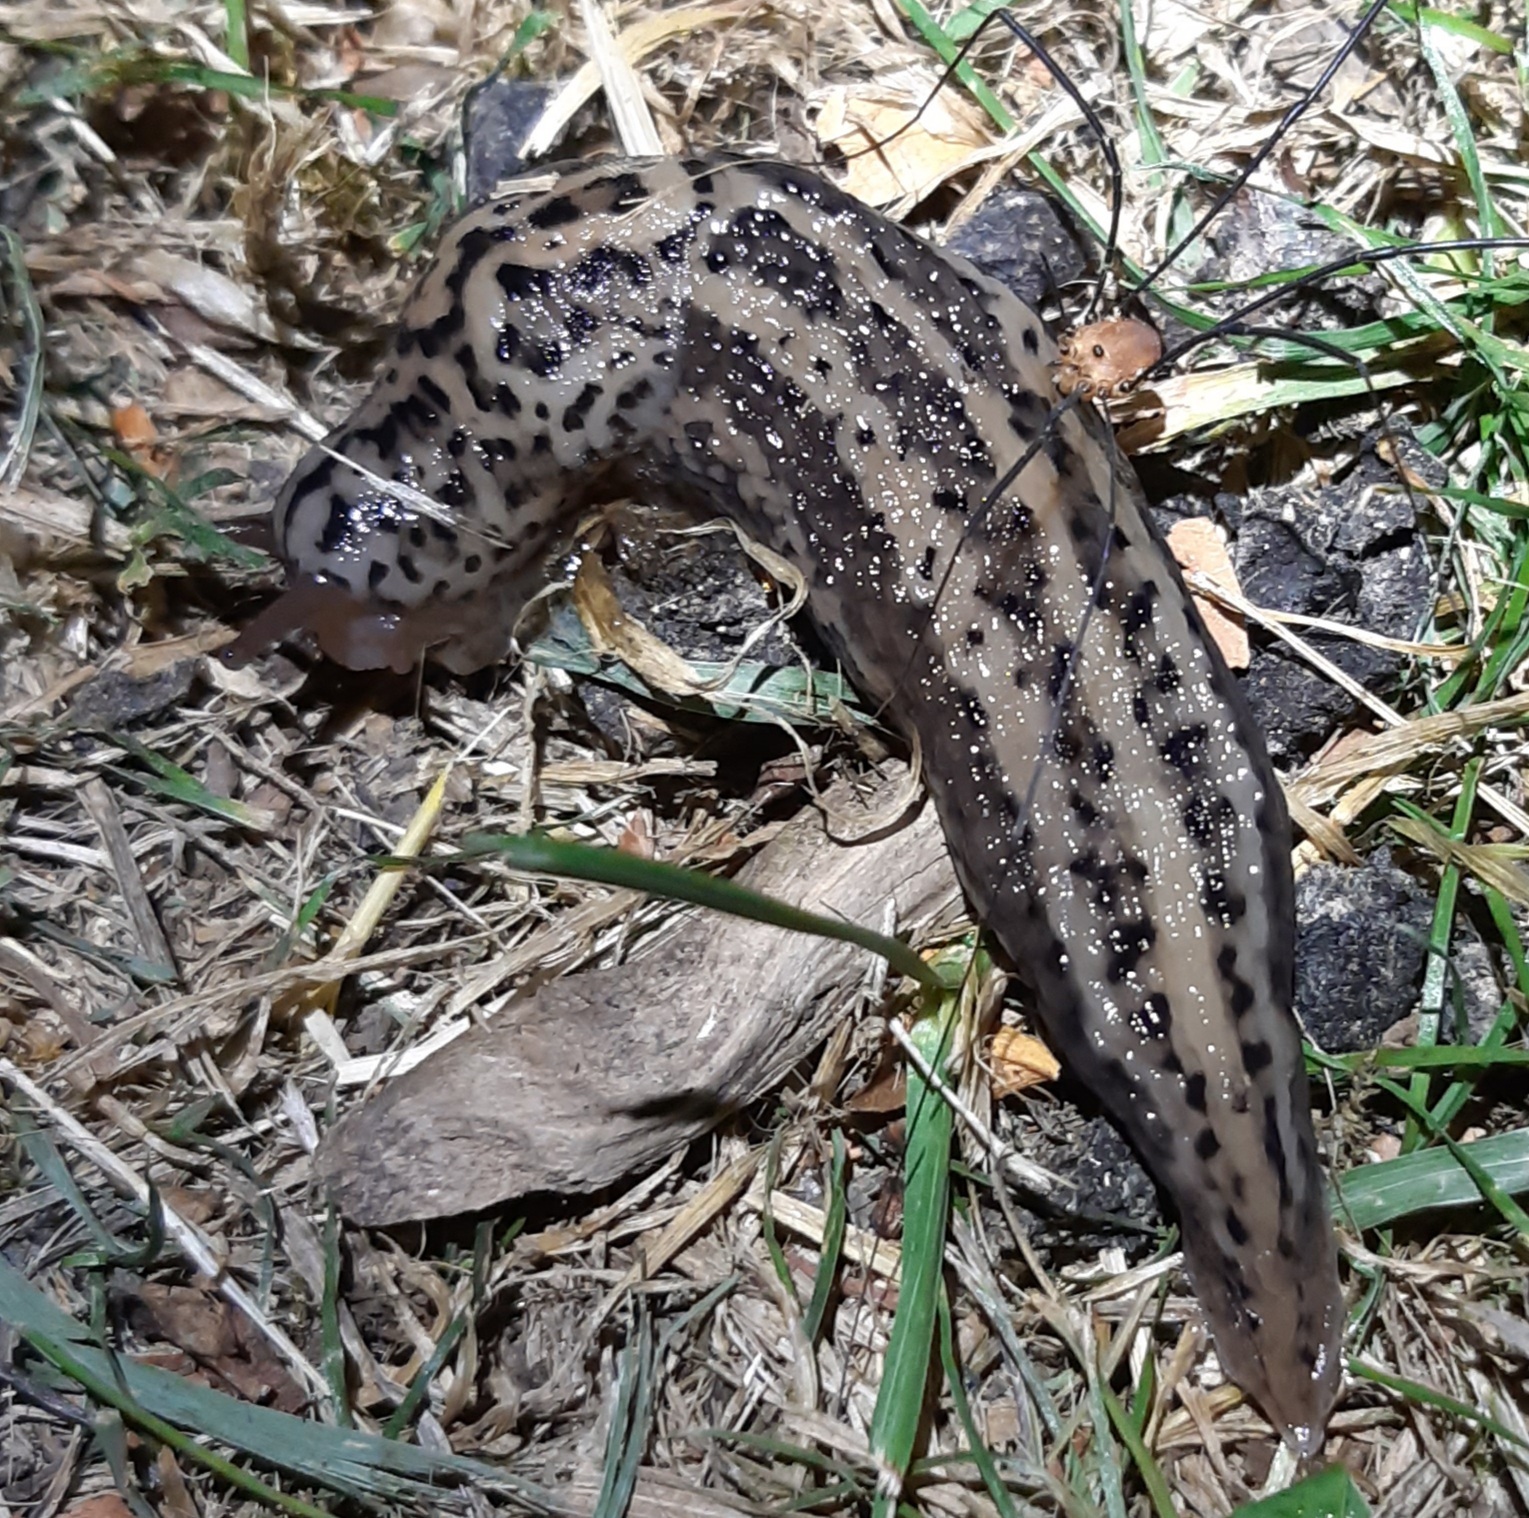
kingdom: Animalia
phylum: Mollusca
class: Gastropoda
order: Stylommatophora
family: Limacidae
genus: Limax
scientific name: Limax maximus
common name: Great grey slug
